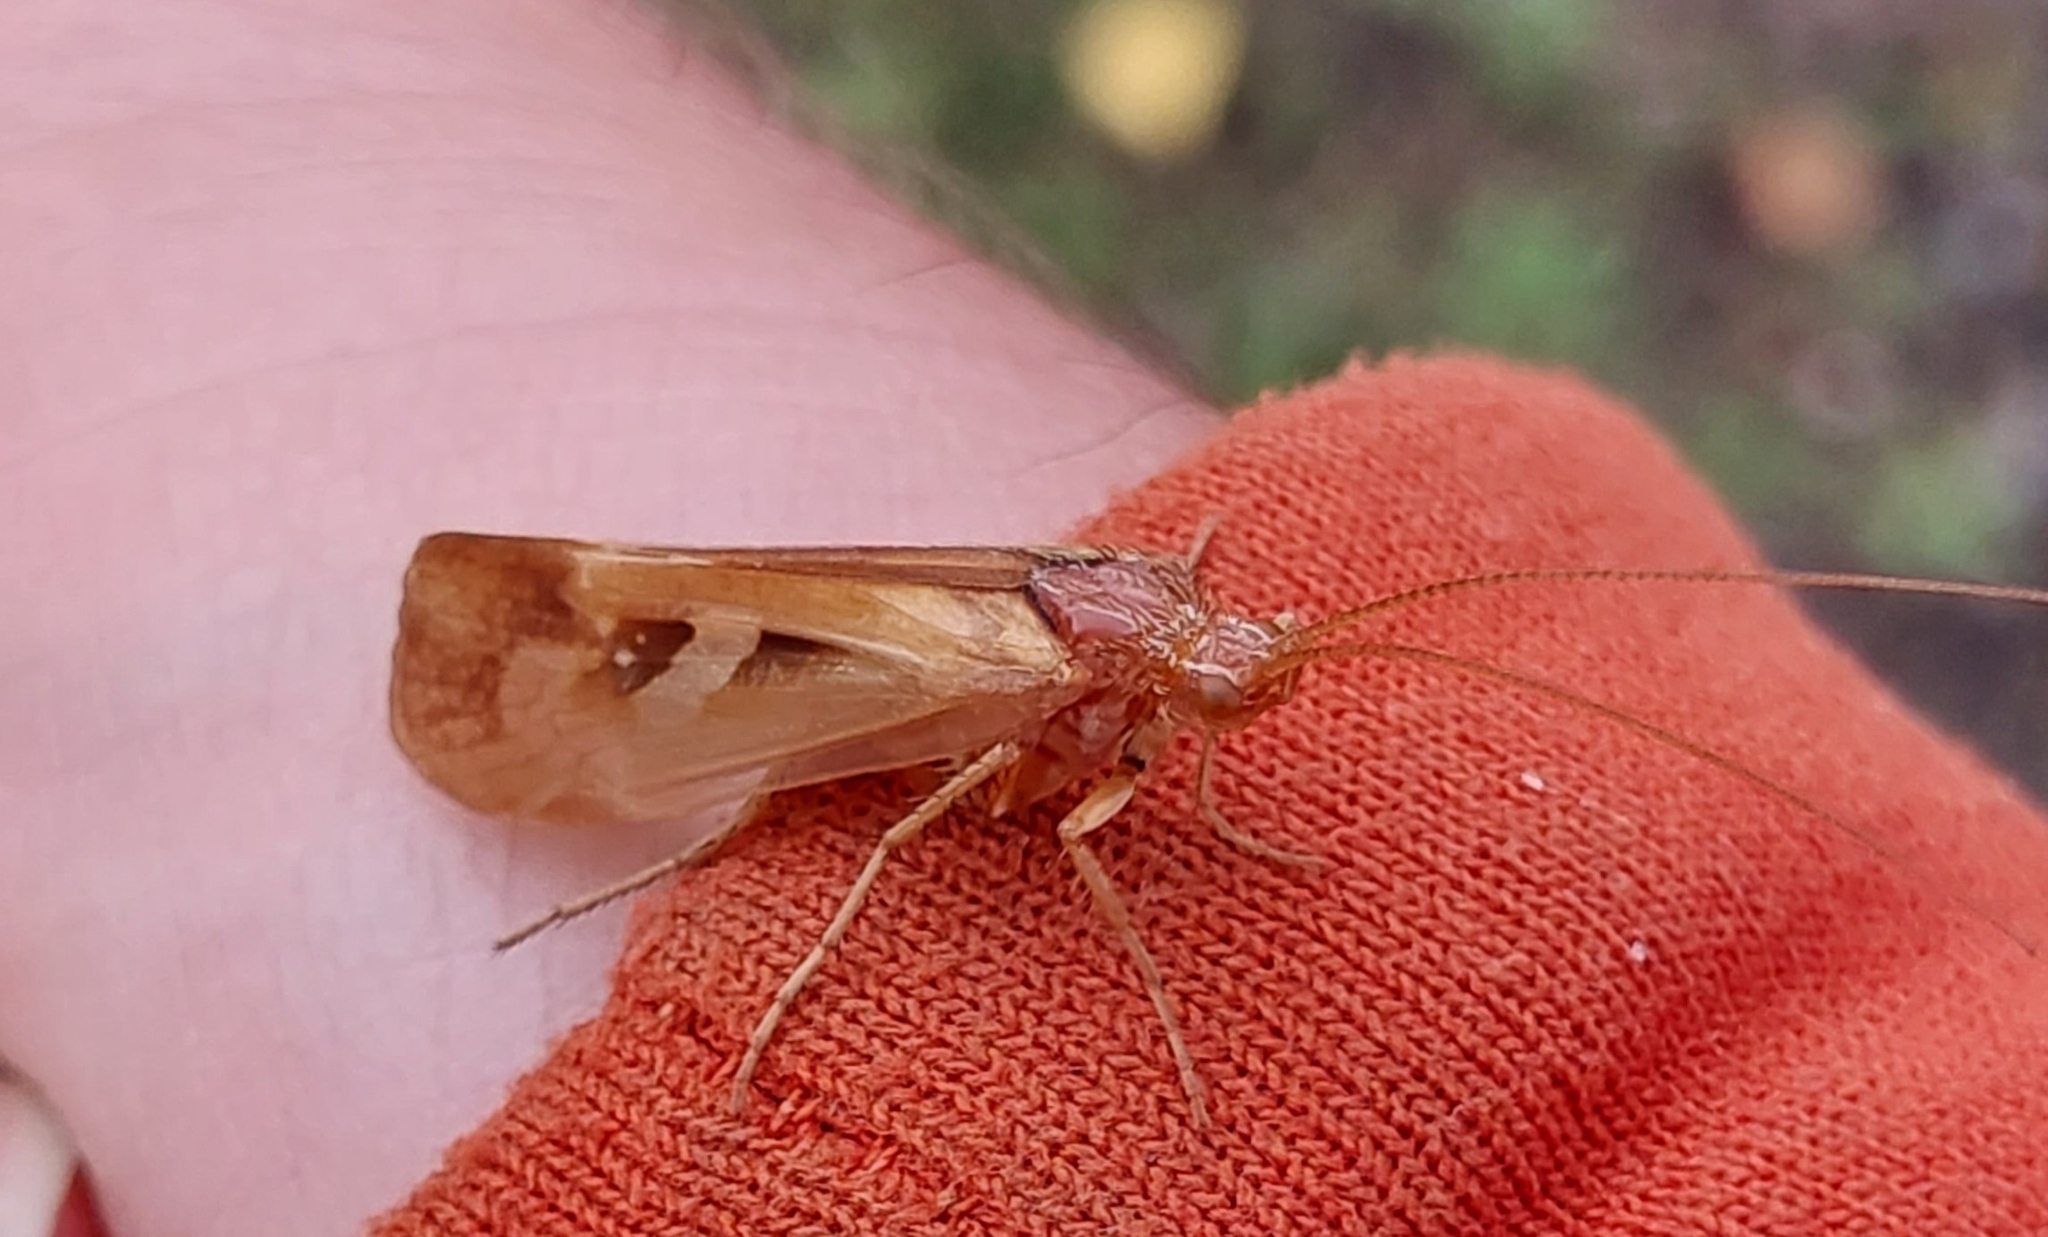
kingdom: Animalia
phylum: Arthropoda
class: Insecta
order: Trichoptera
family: Limnephilidae
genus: Limnephilus
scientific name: Limnephilus rhombicus
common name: Diamond northern caddisfly
